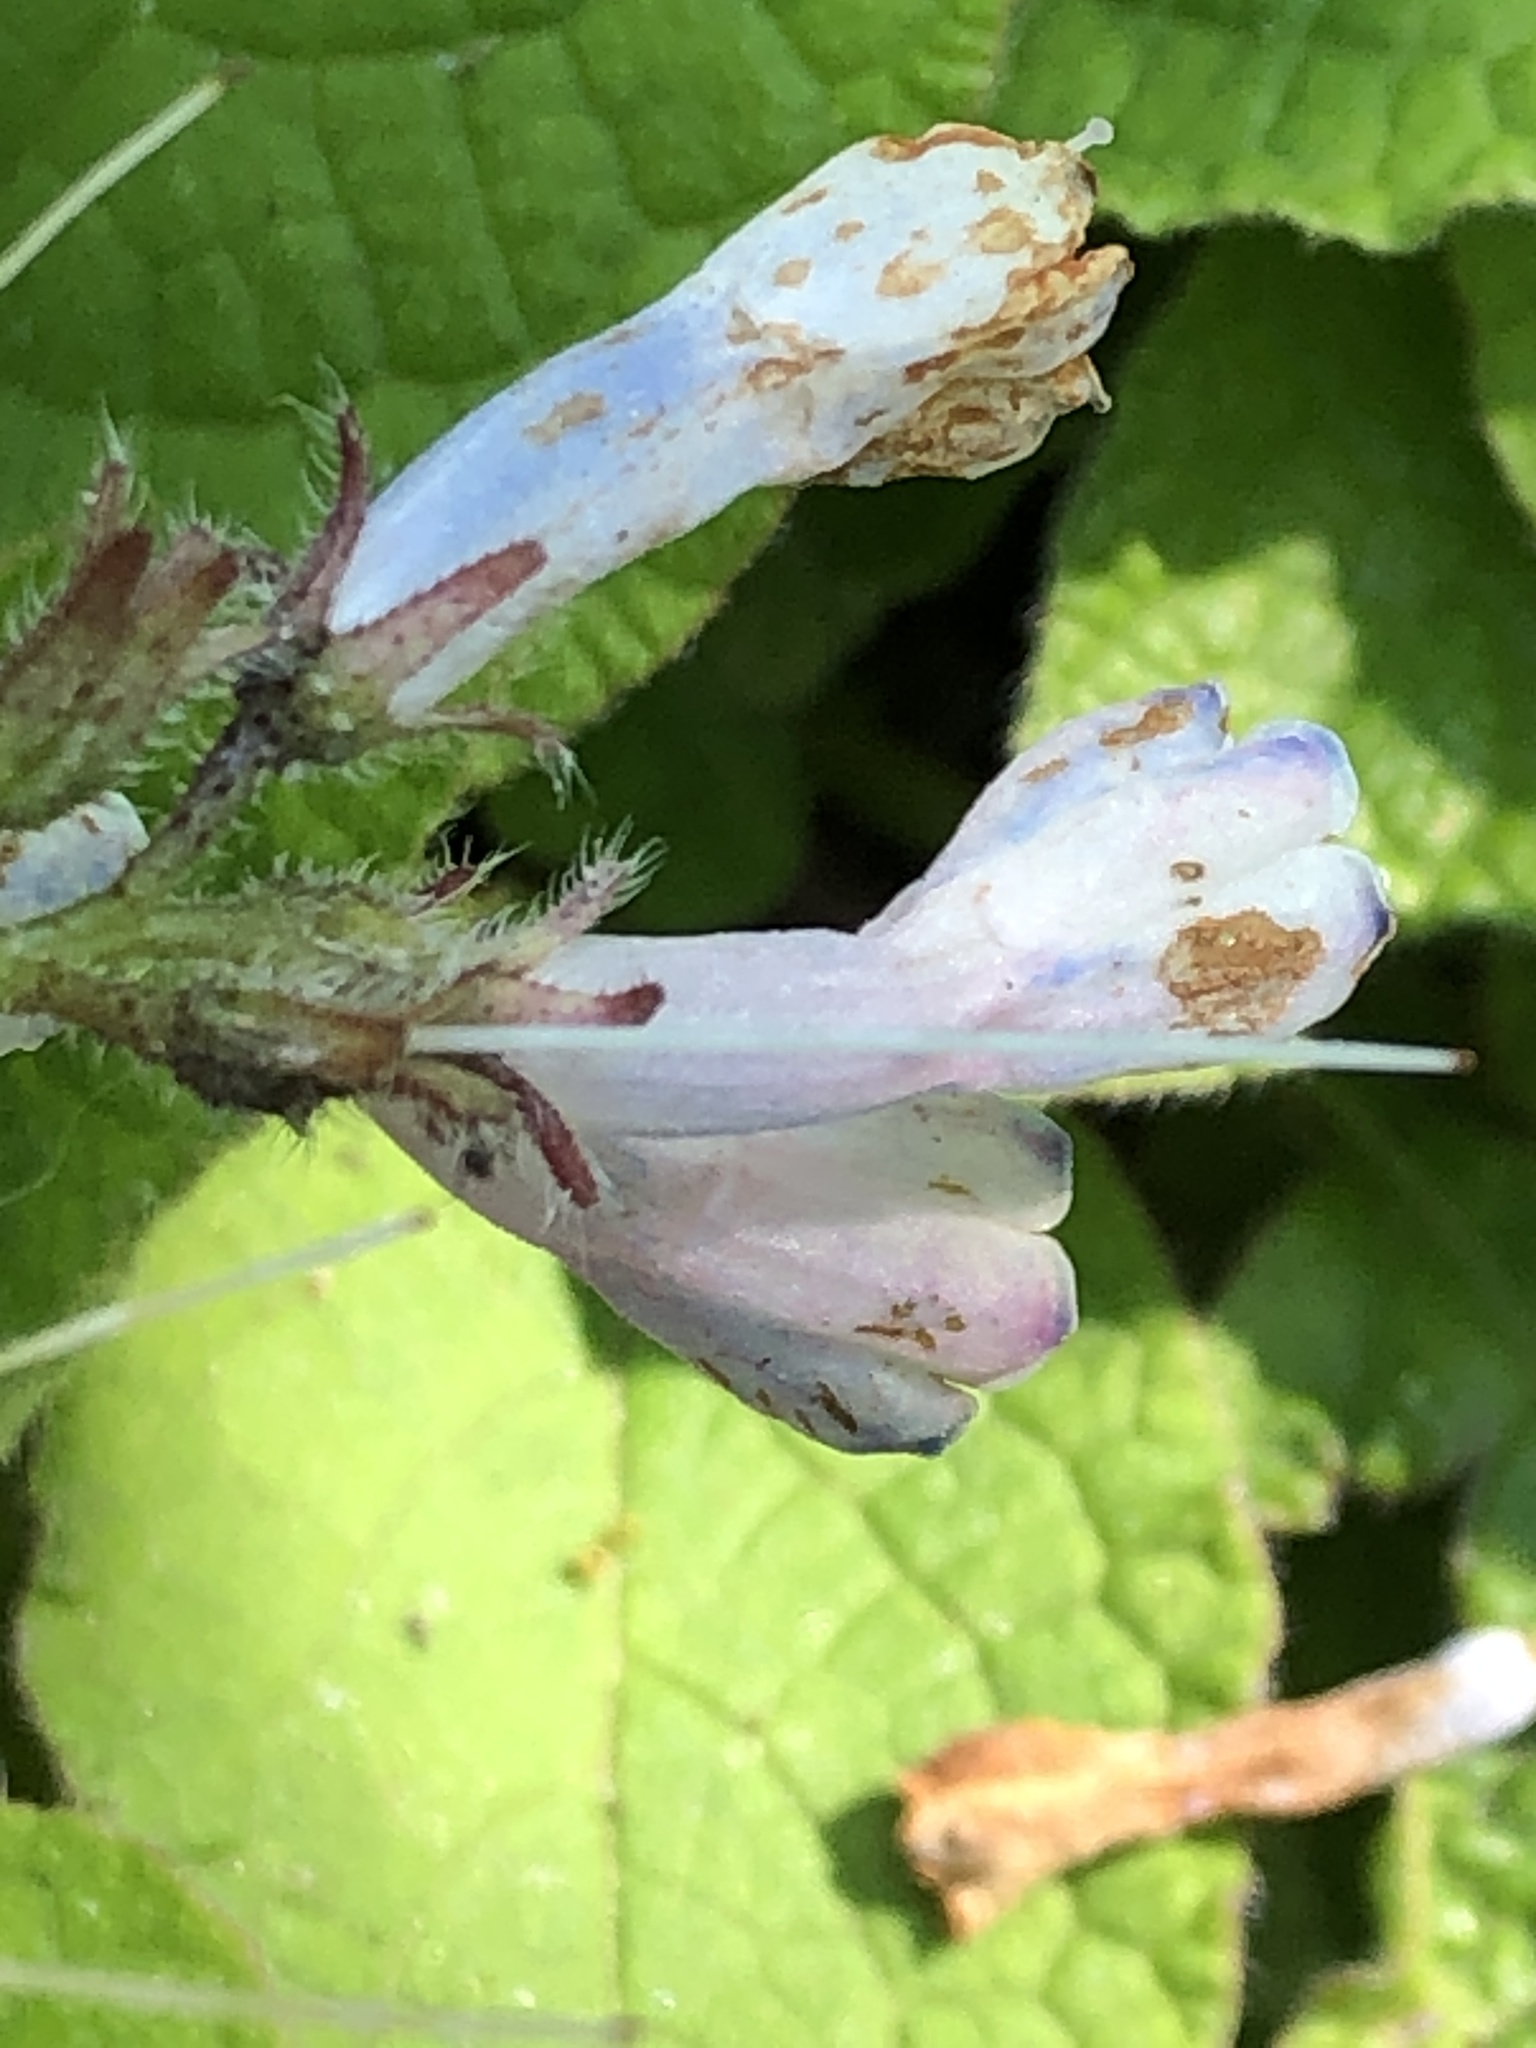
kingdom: Plantae
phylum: Tracheophyta
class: Magnoliopsida
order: Boraginales
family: Boraginaceae
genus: Symphytum
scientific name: Symphytum officinale
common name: Common comfrey
